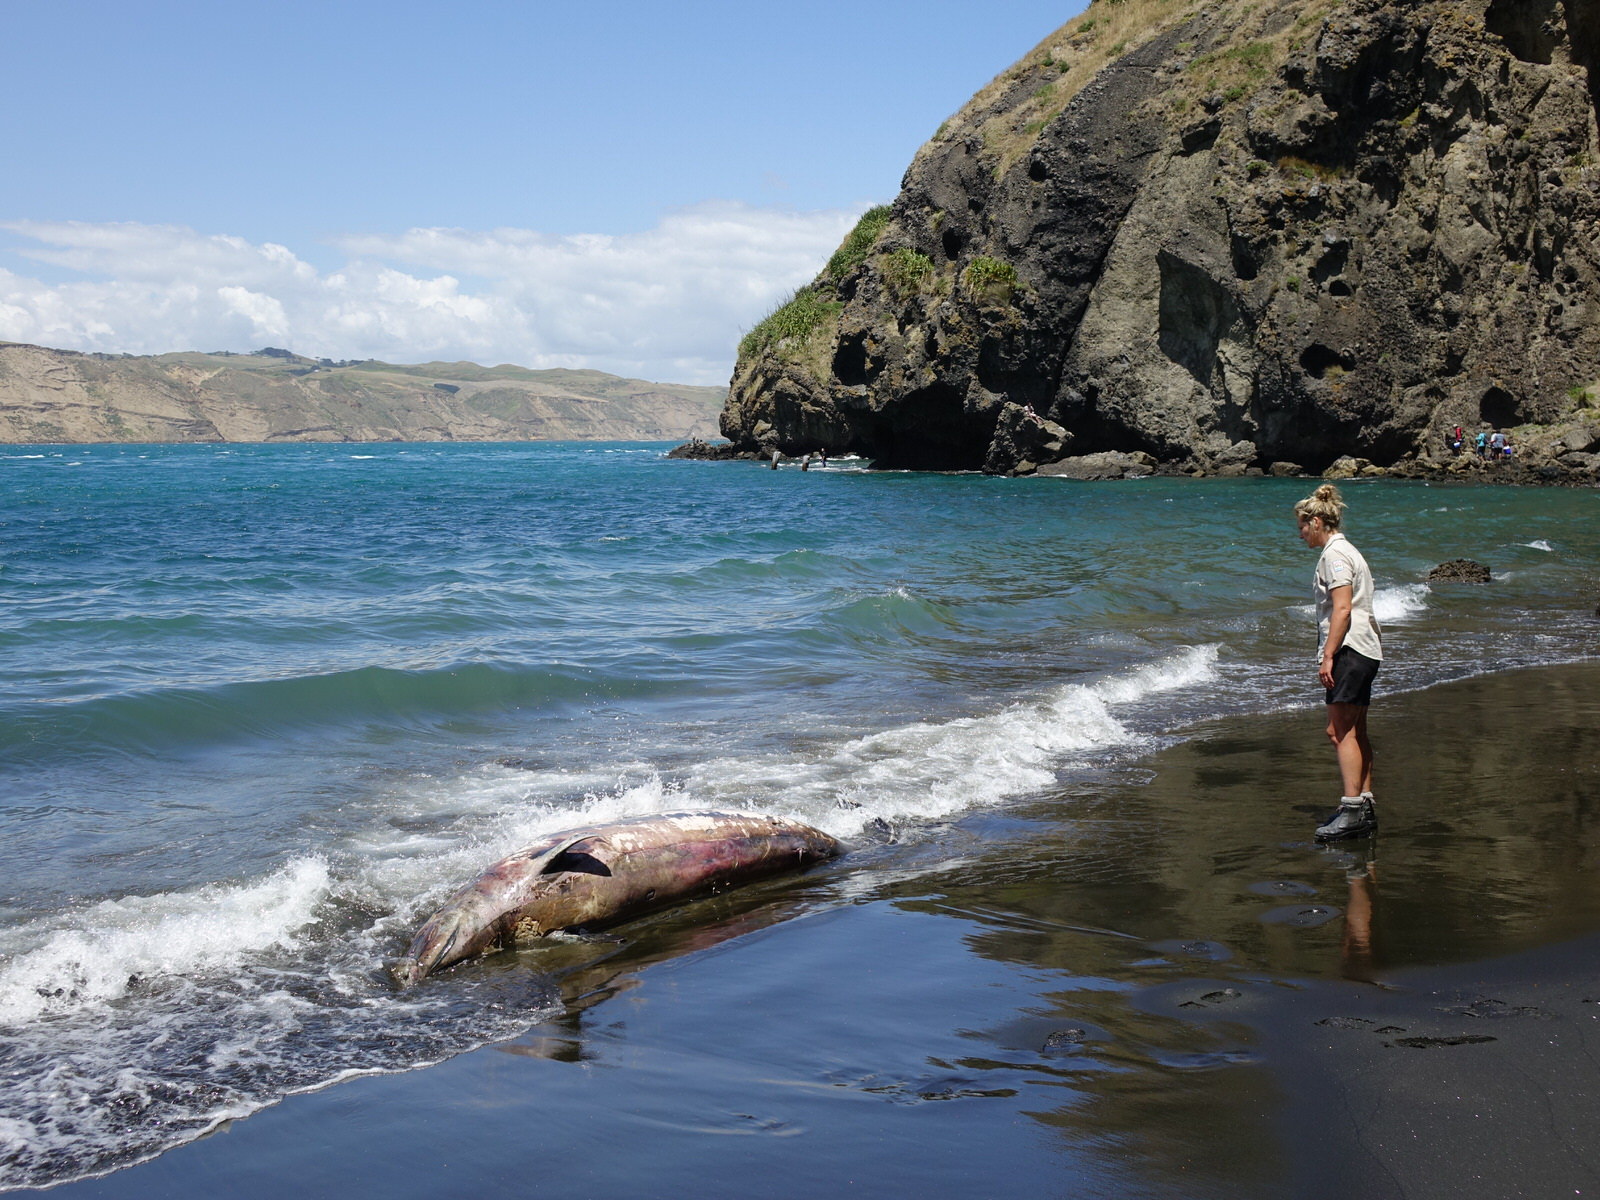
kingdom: Animalia
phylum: Chordata
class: Mammalia
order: Cetacea
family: Hyperoodontidae
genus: Mesoplodon
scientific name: Mesoplodon grayi
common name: Southern beaked whale
